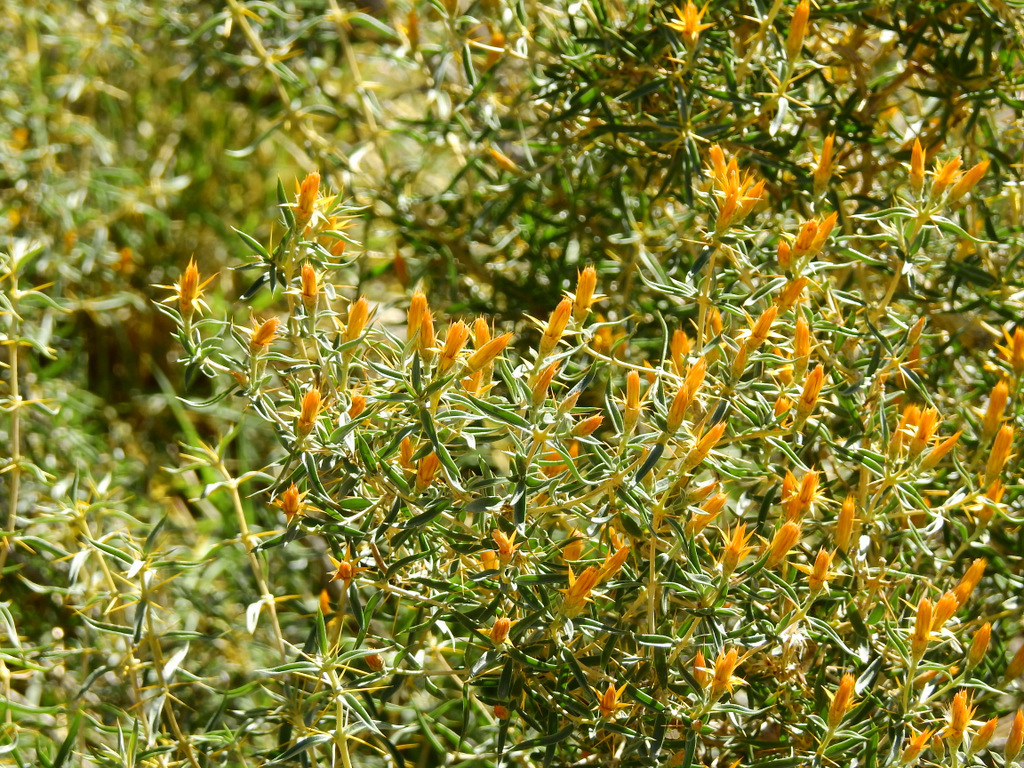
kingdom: Plantae
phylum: Tracheophyta
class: Magnoliopsida
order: Asterales
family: Asteraceae
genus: Chuquiraga
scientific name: Chuquiraga oppositifolia
